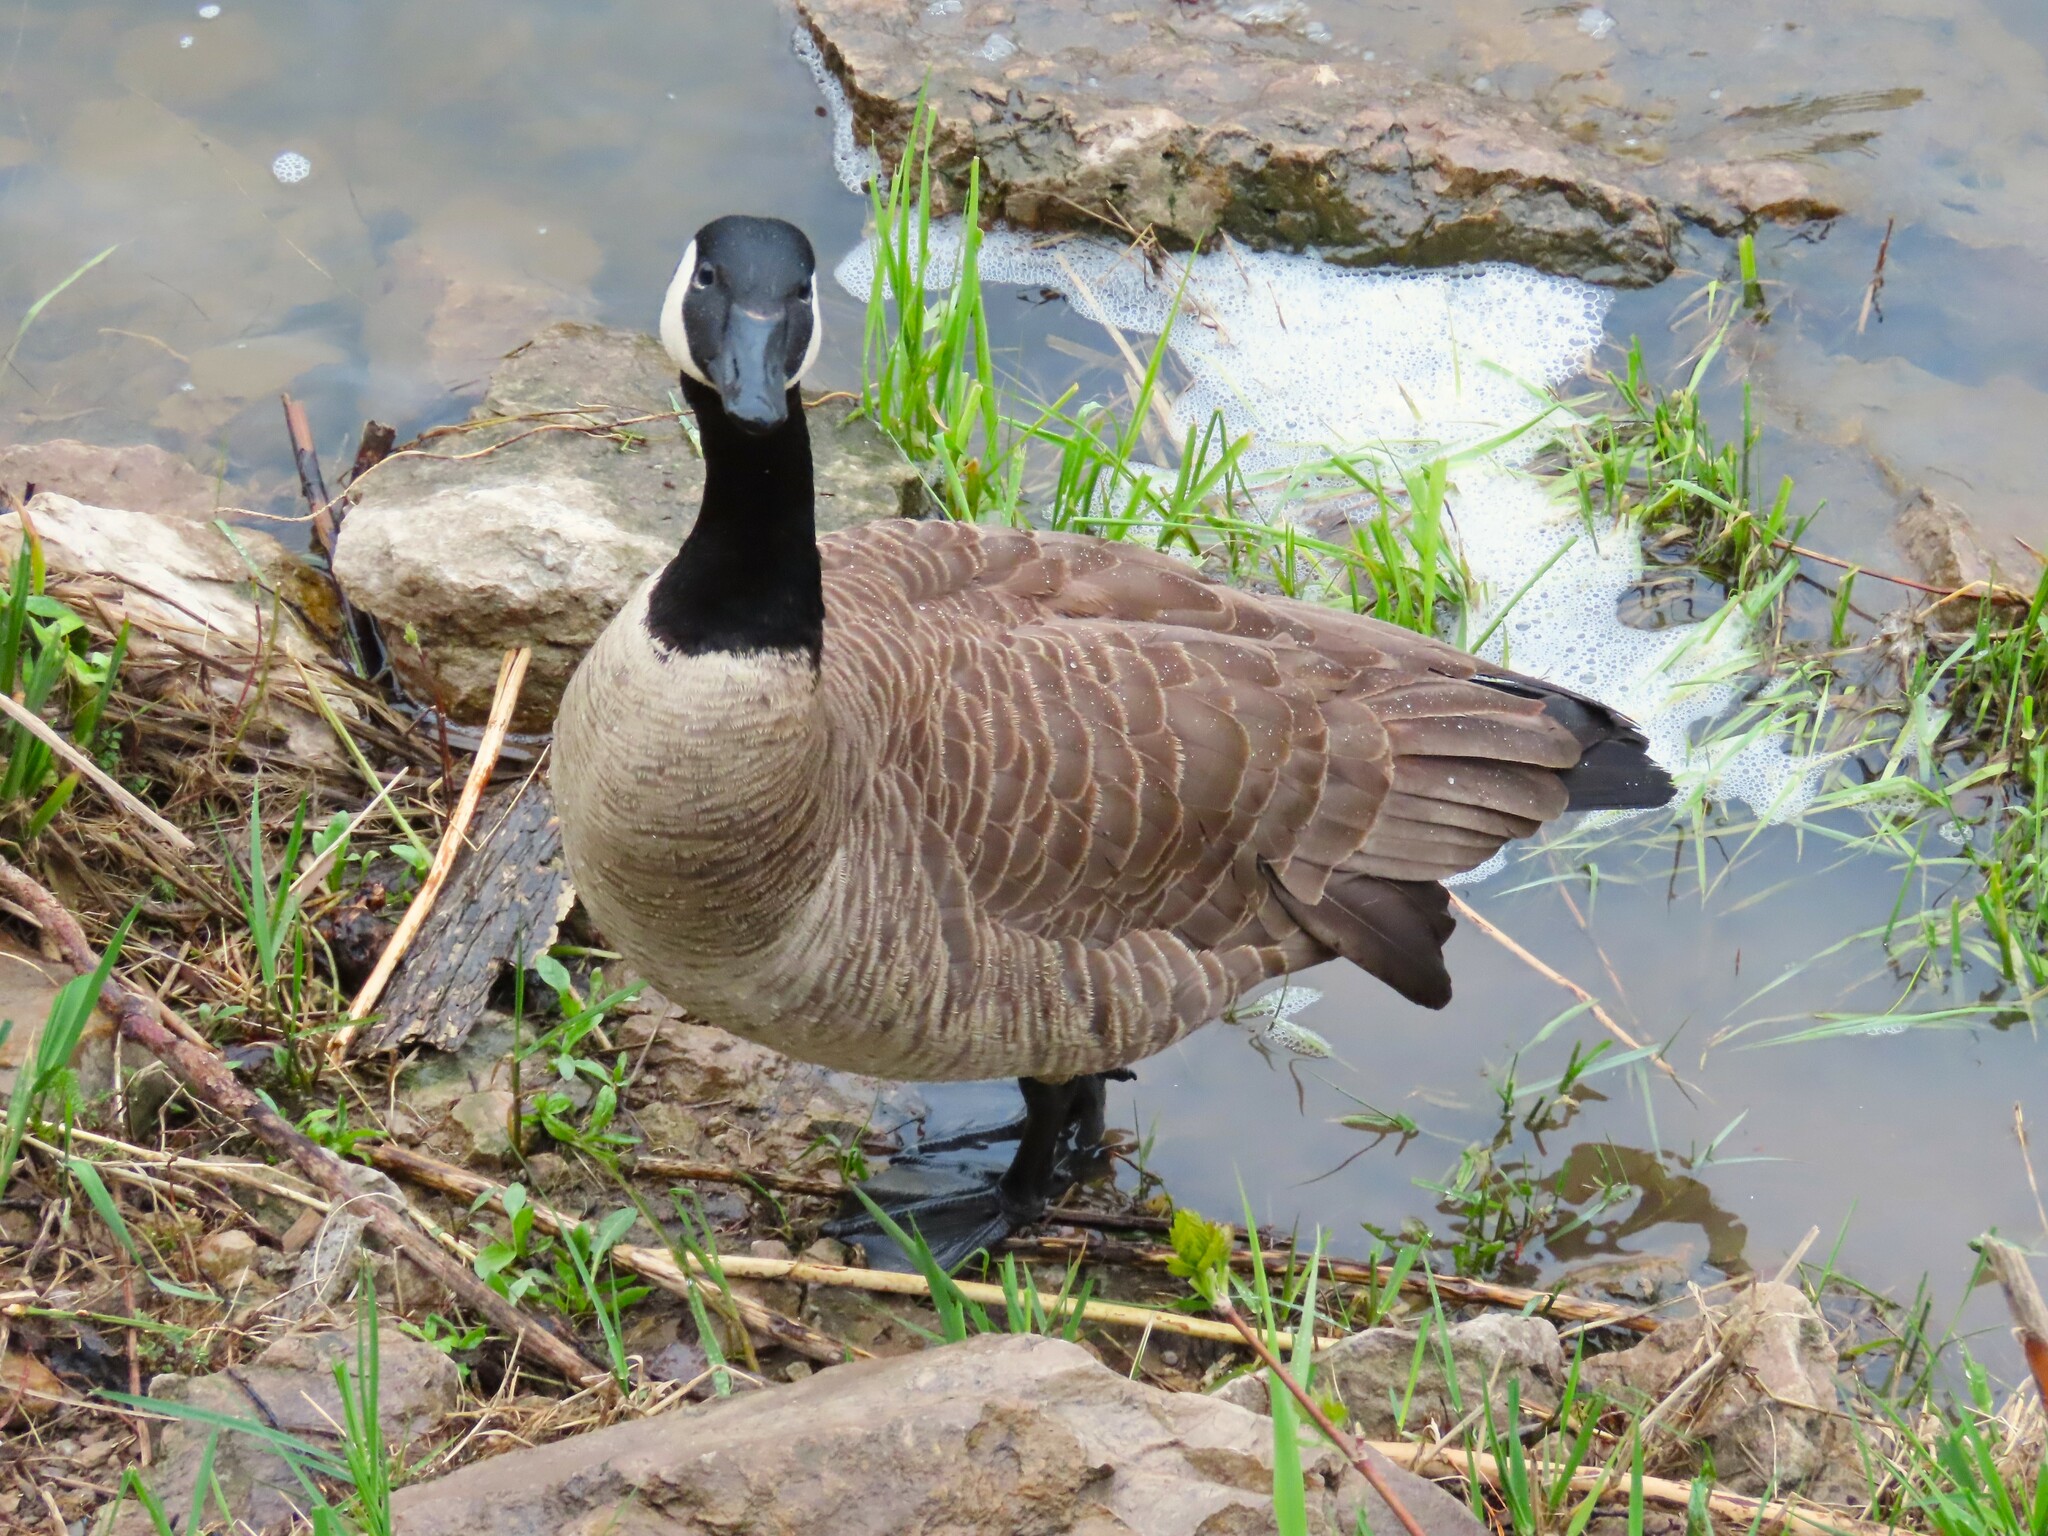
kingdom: Animalia
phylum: Chordata
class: Aves
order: Anseriformes
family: Anatidae
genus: Branta
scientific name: Branta canadensis
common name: Canada goose
